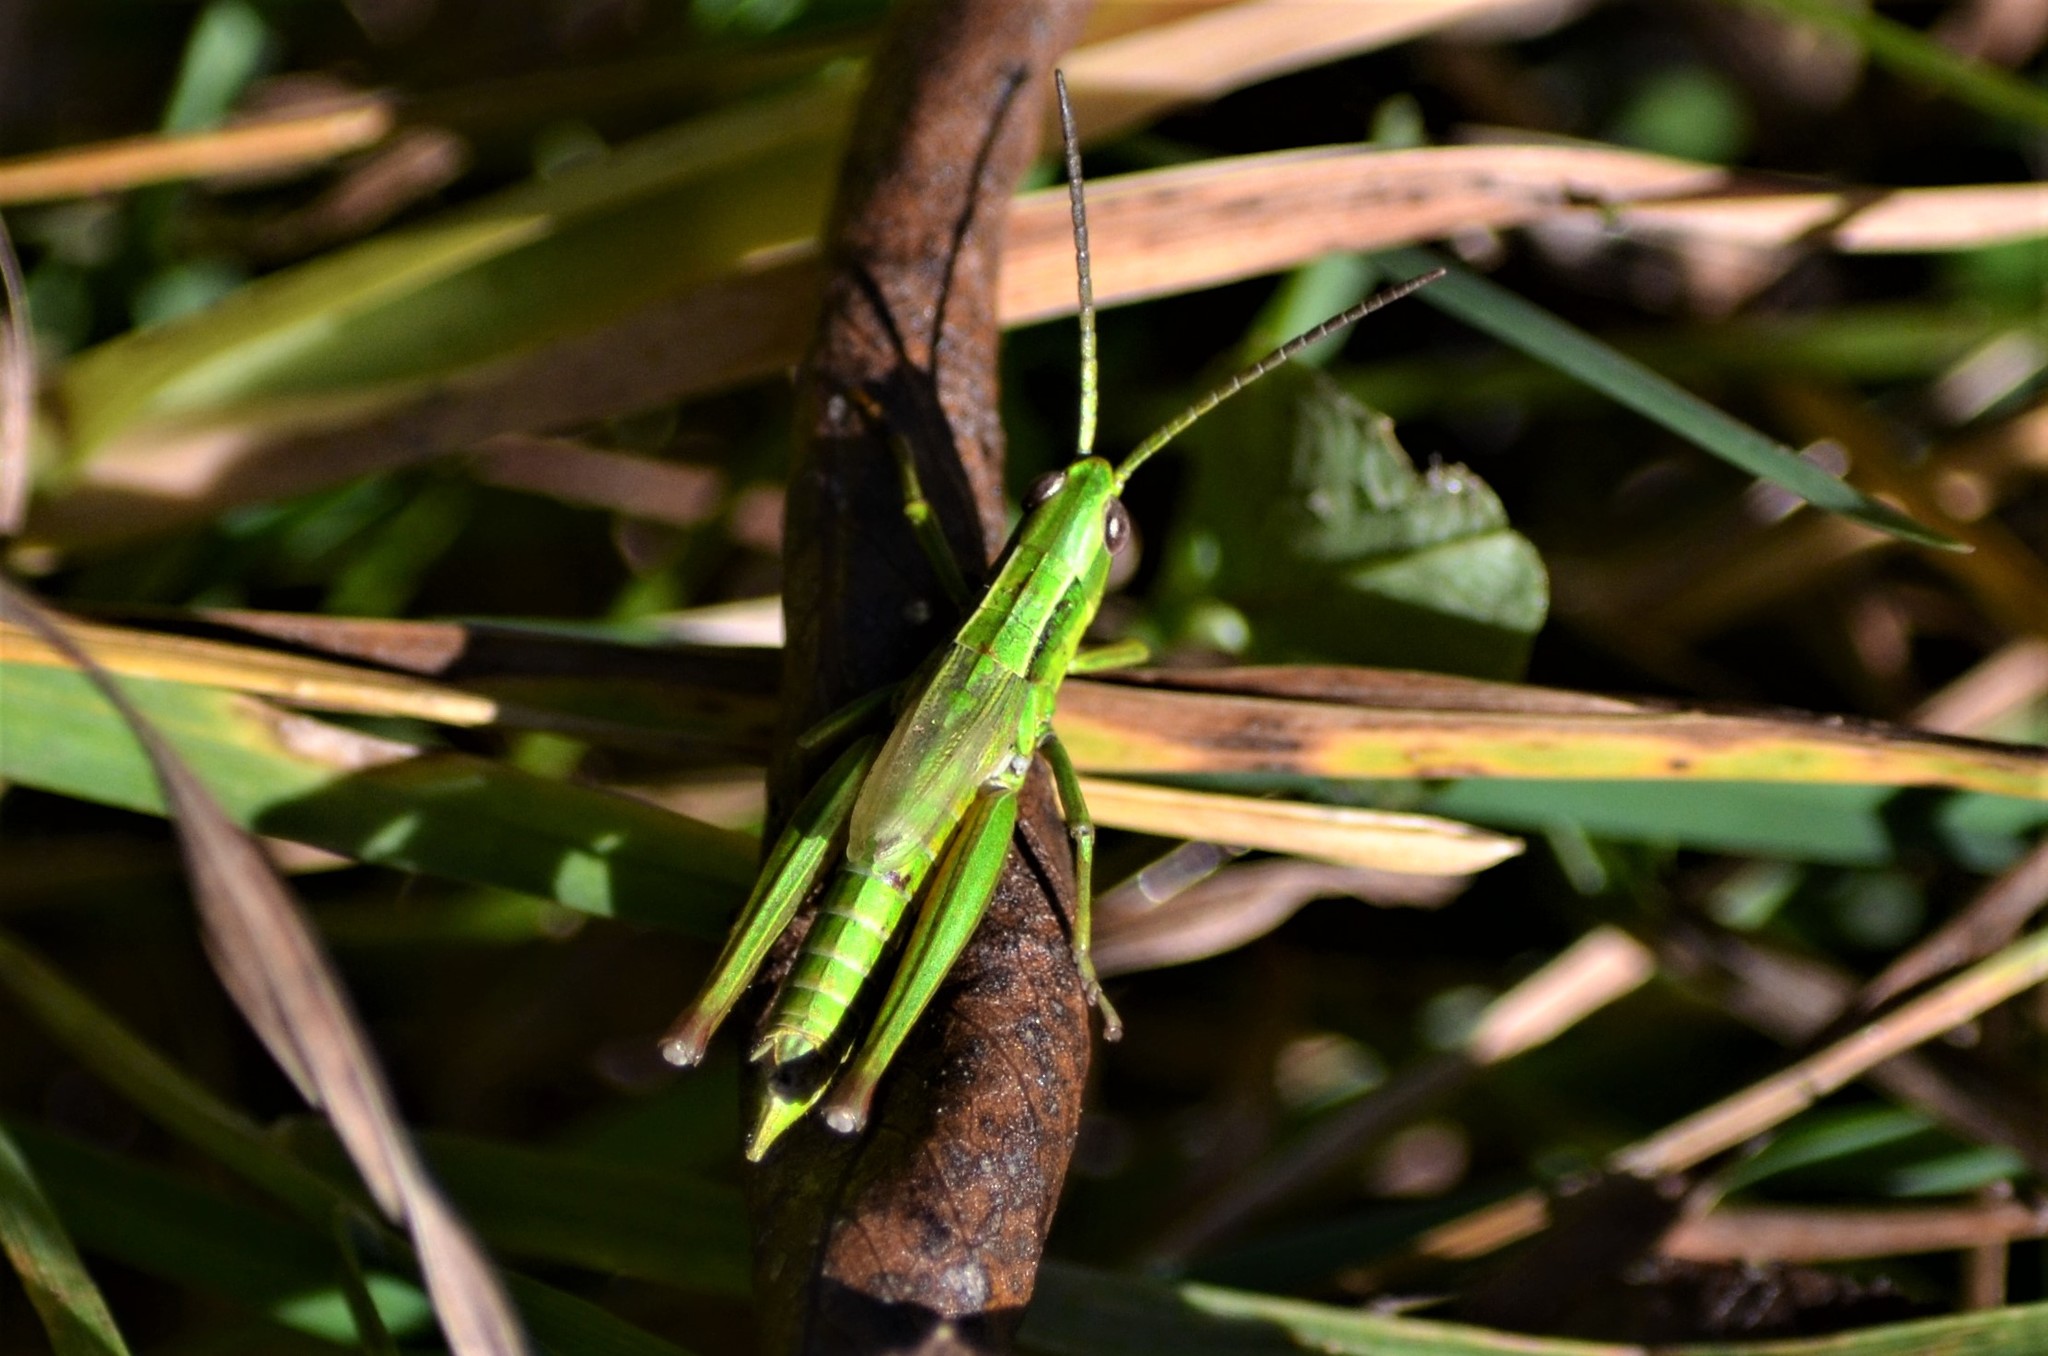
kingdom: Animalia
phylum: Arthropoda
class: Insecta
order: Orthoptera
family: Acrididae
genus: Euthystira
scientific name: Euthystira brachyptera
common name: Small gold grasshopper
